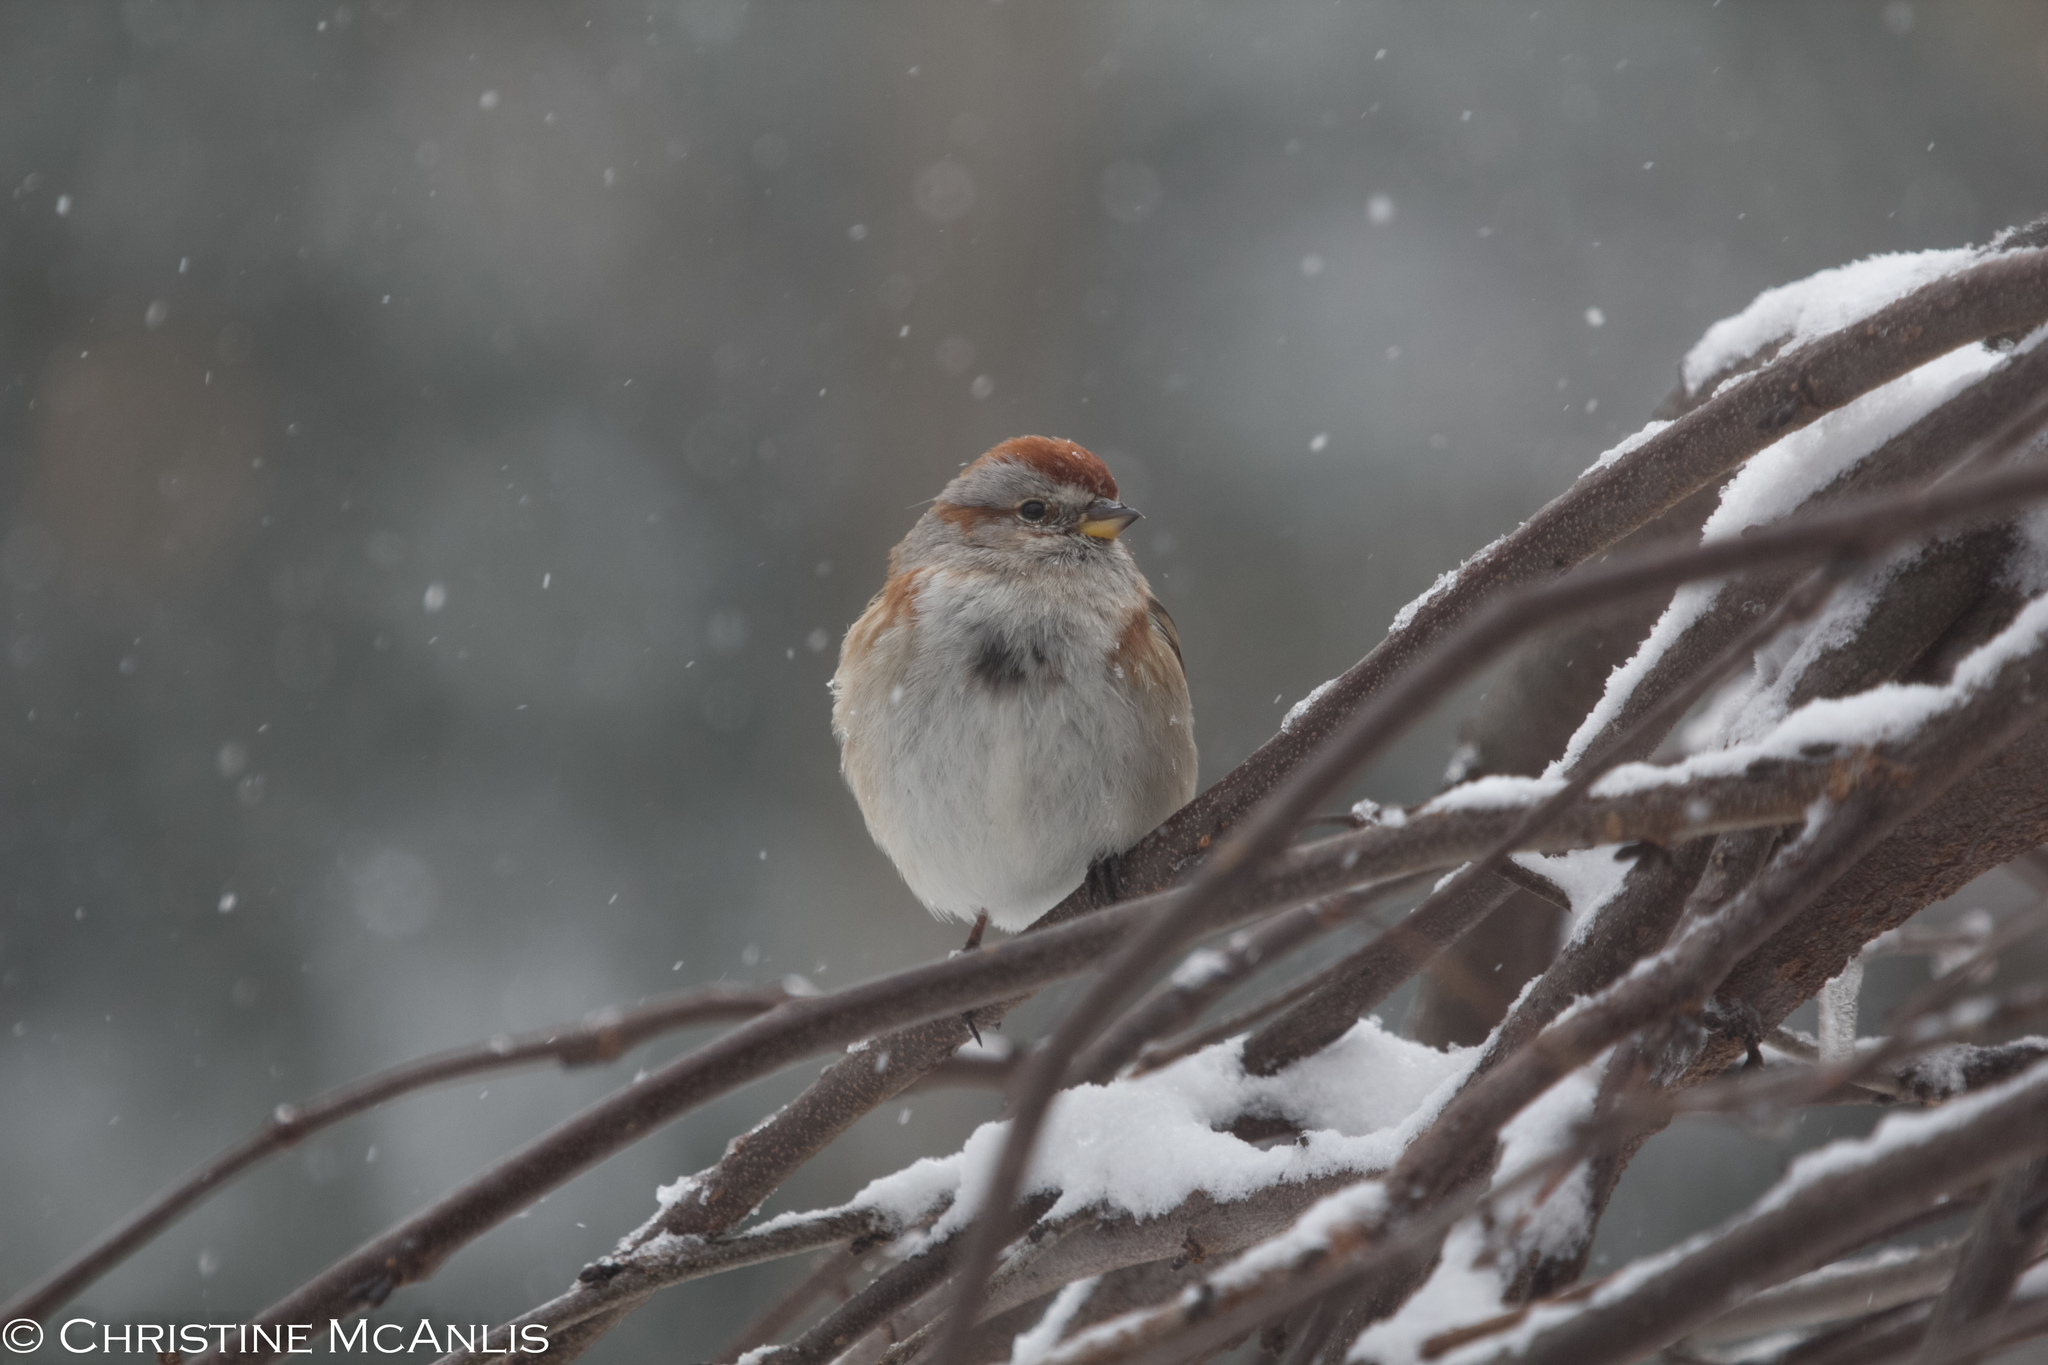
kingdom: Animalia
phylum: Chordata
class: Aves
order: Passeriformes
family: Passerellidae
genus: Spizelloides
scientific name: Spizelloides arborea
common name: American tree sparrow
